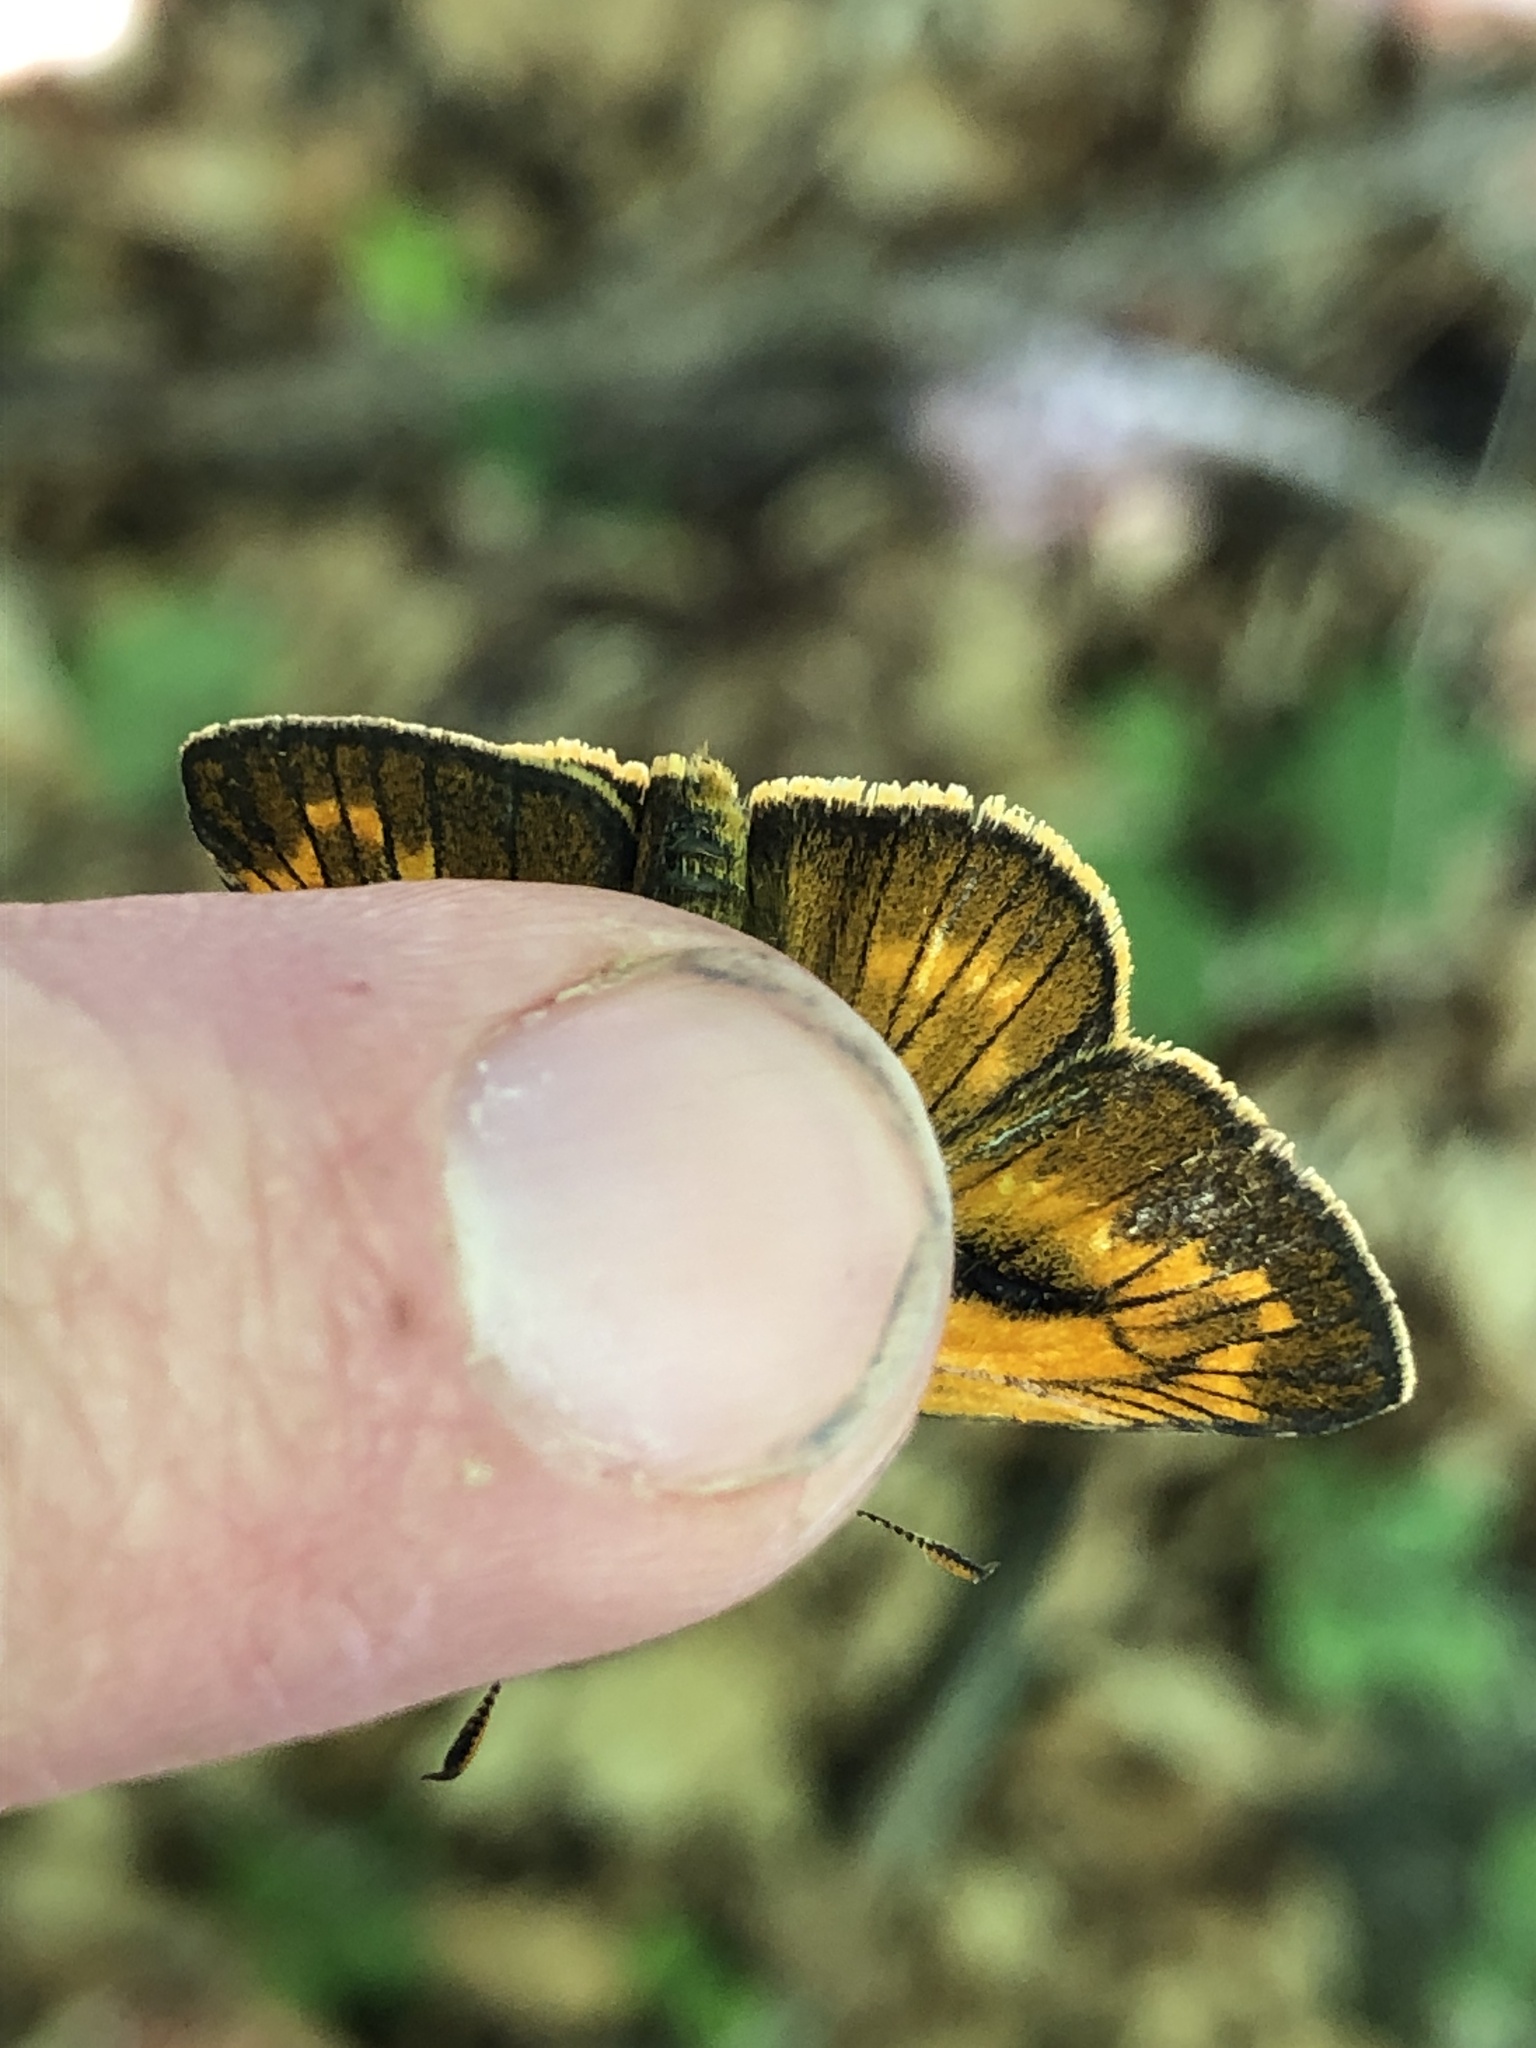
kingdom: Animalia
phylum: Arthropoda
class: Insecta
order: Lepidoptera
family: Hesperiidae
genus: Ochlodes
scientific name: Ochlodes venata
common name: Large skipper
